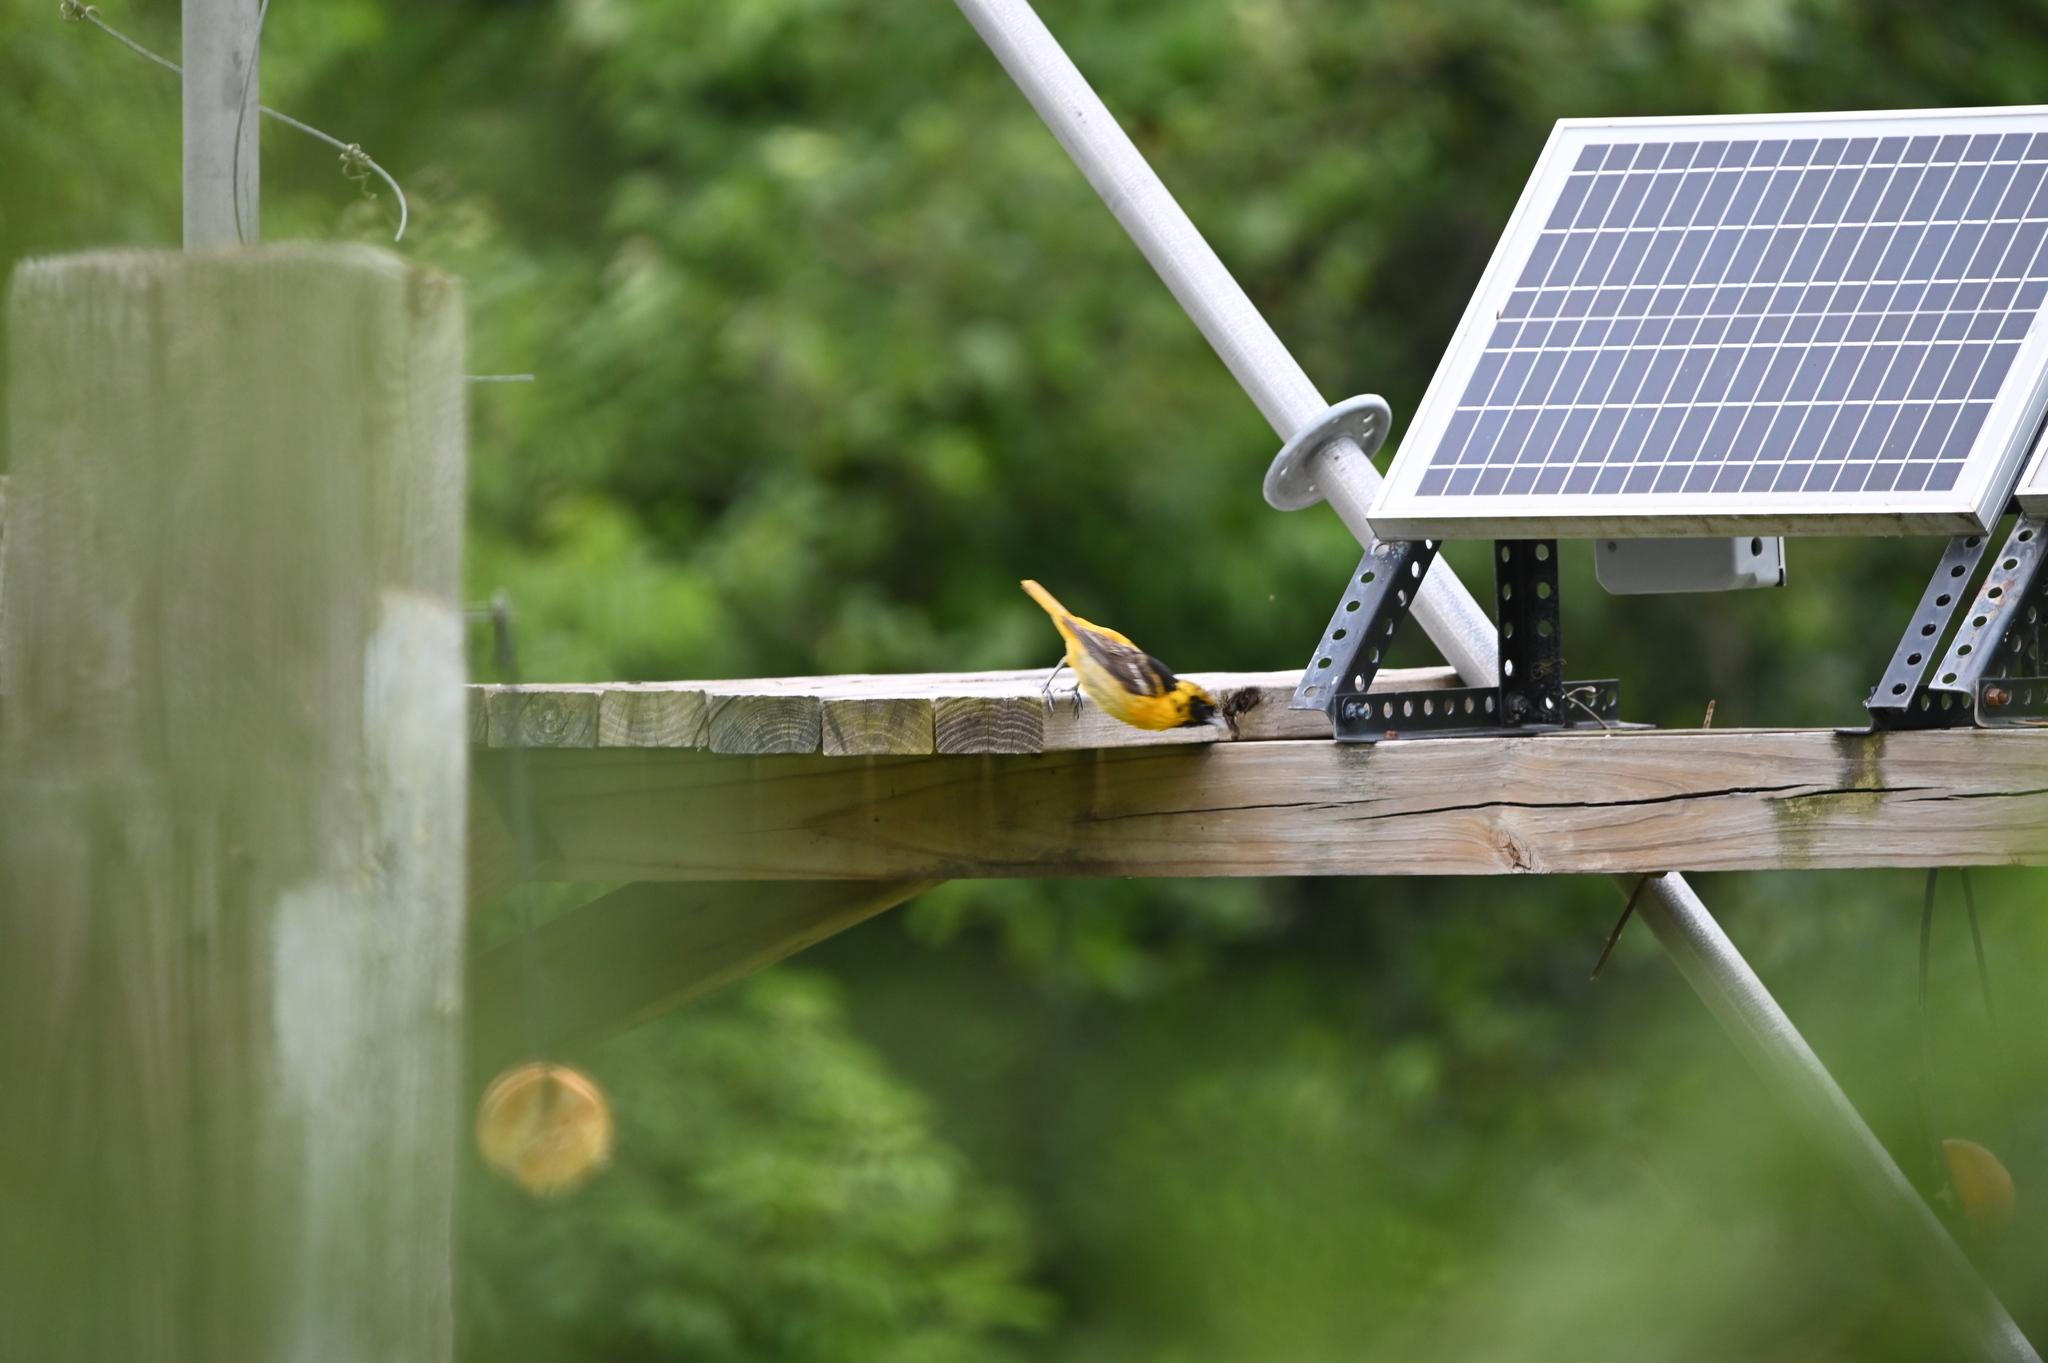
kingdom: Animalia
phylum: Chordata
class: Aves
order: Passeriformes
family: Icteridae
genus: Icterus
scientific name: Icterus galbula
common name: Baltimore oriole
